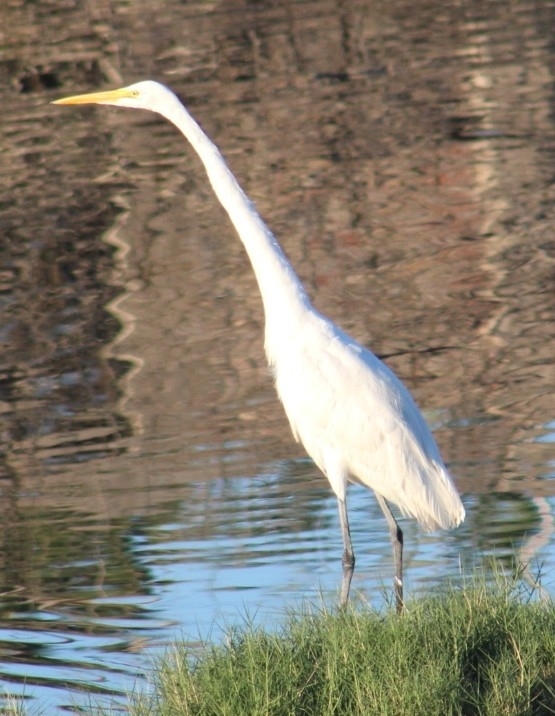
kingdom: Animalia
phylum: Chordata
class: Aves
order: Pelecaniformes
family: Ardeidae
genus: Ardea
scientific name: Ardea alba
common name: Great egret
